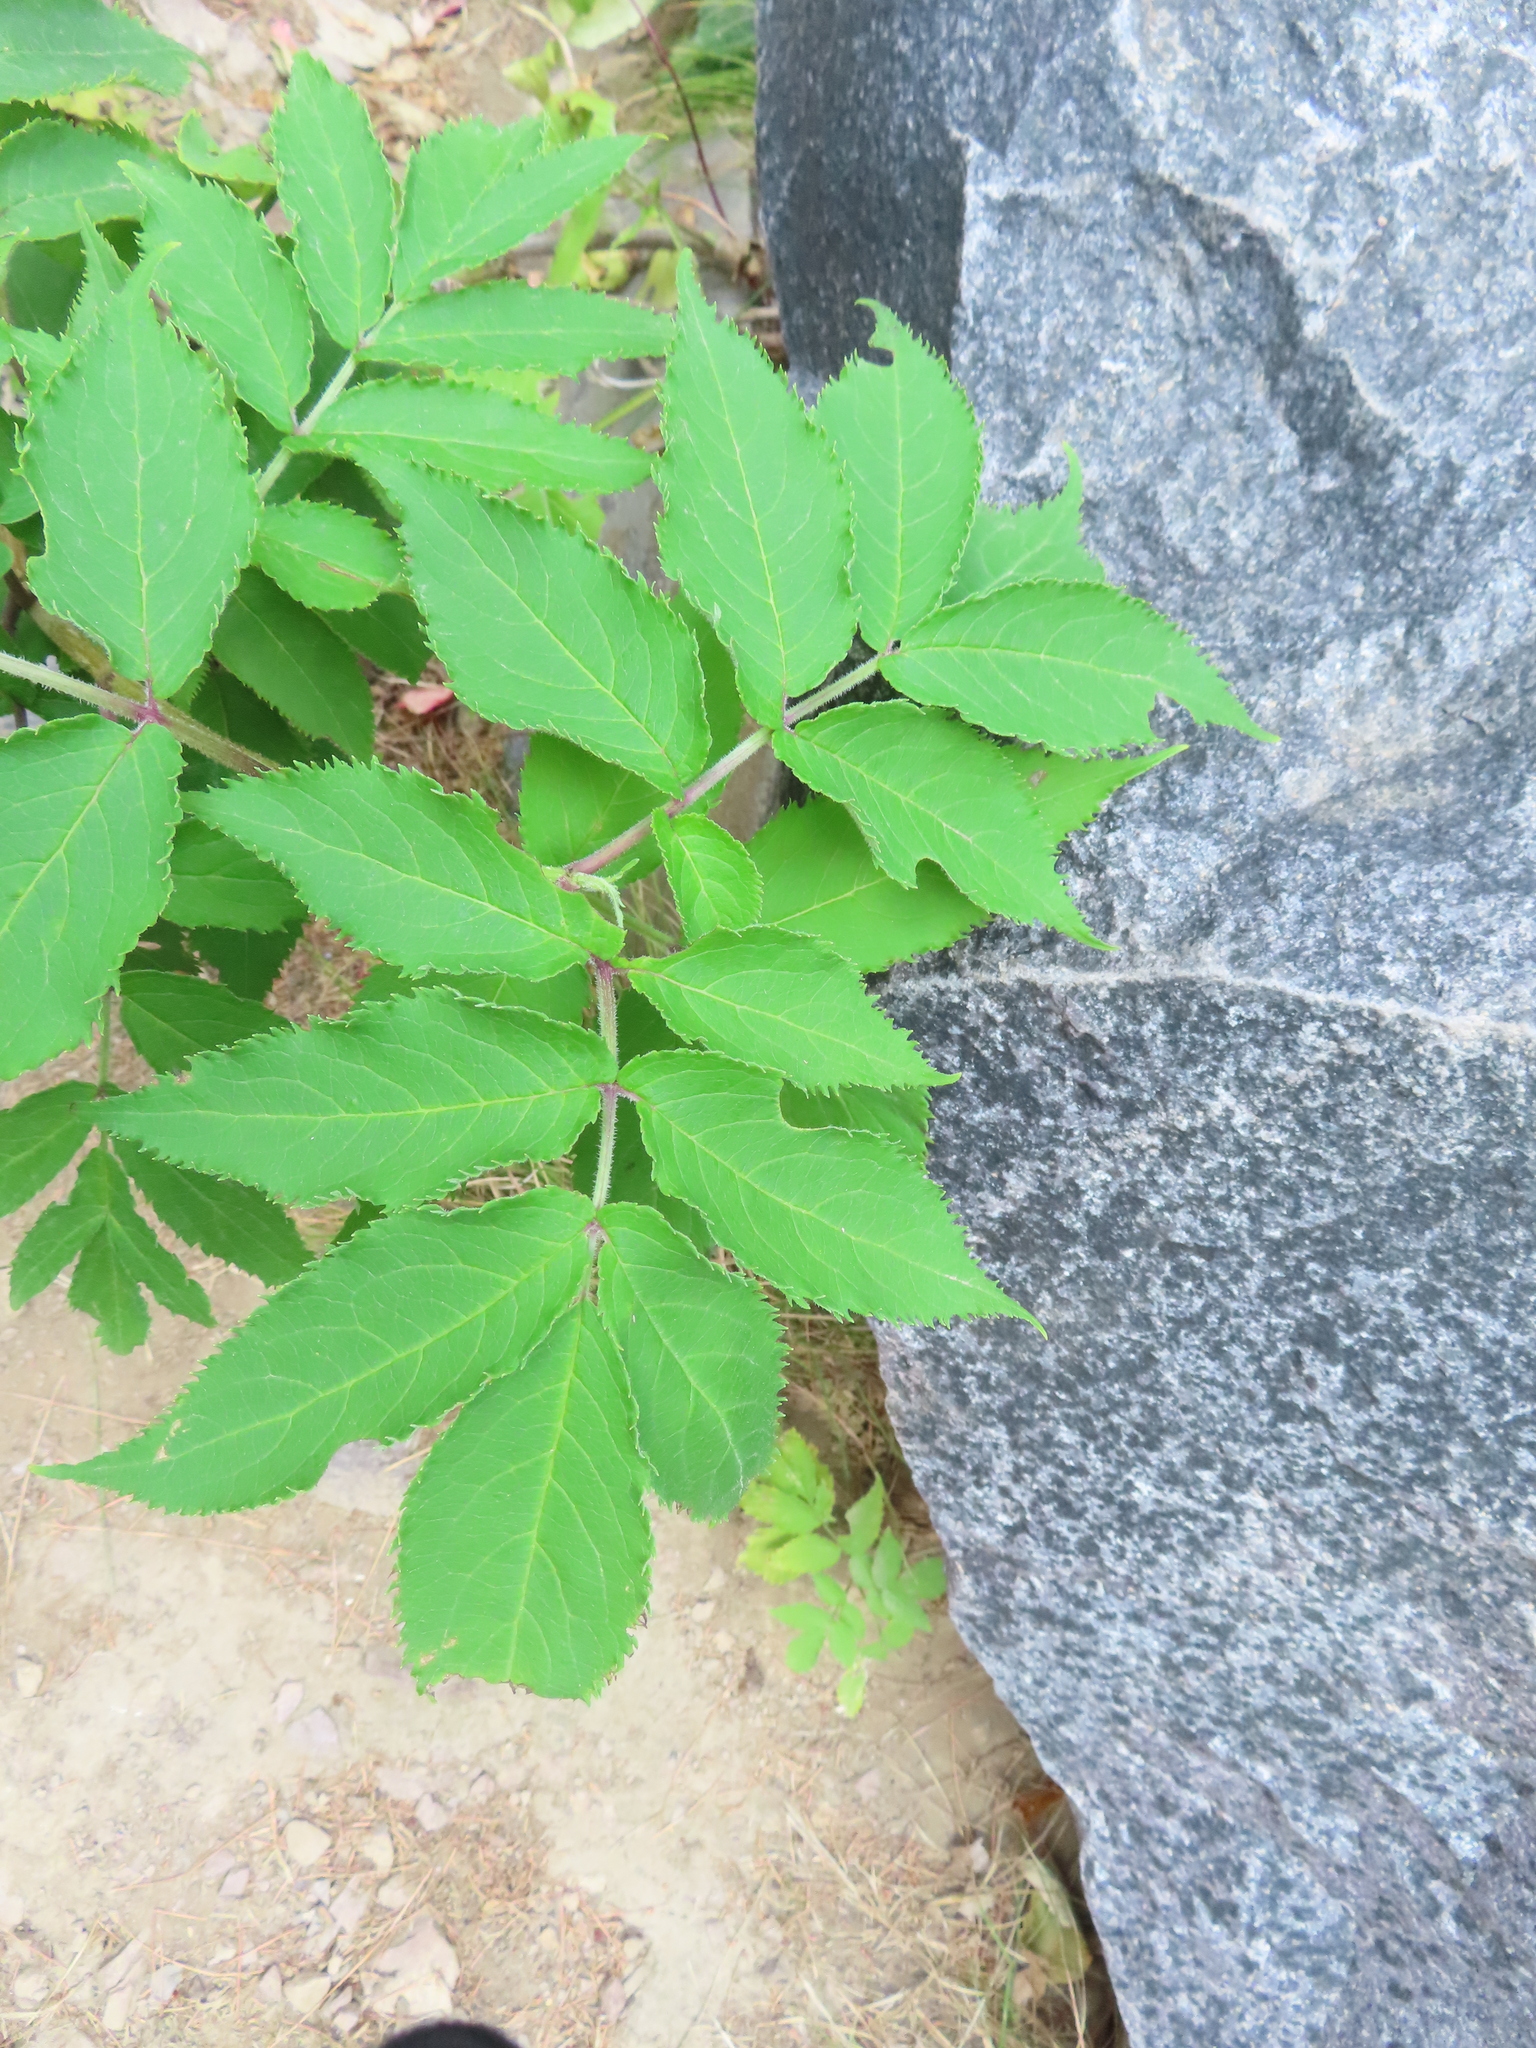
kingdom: Plantae
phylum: Tracheophyta
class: Magnoliopsida
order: Dipsacales
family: Viburnaceae
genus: Sambucus
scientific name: Sambucus racemosa
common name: Red-berried elder
